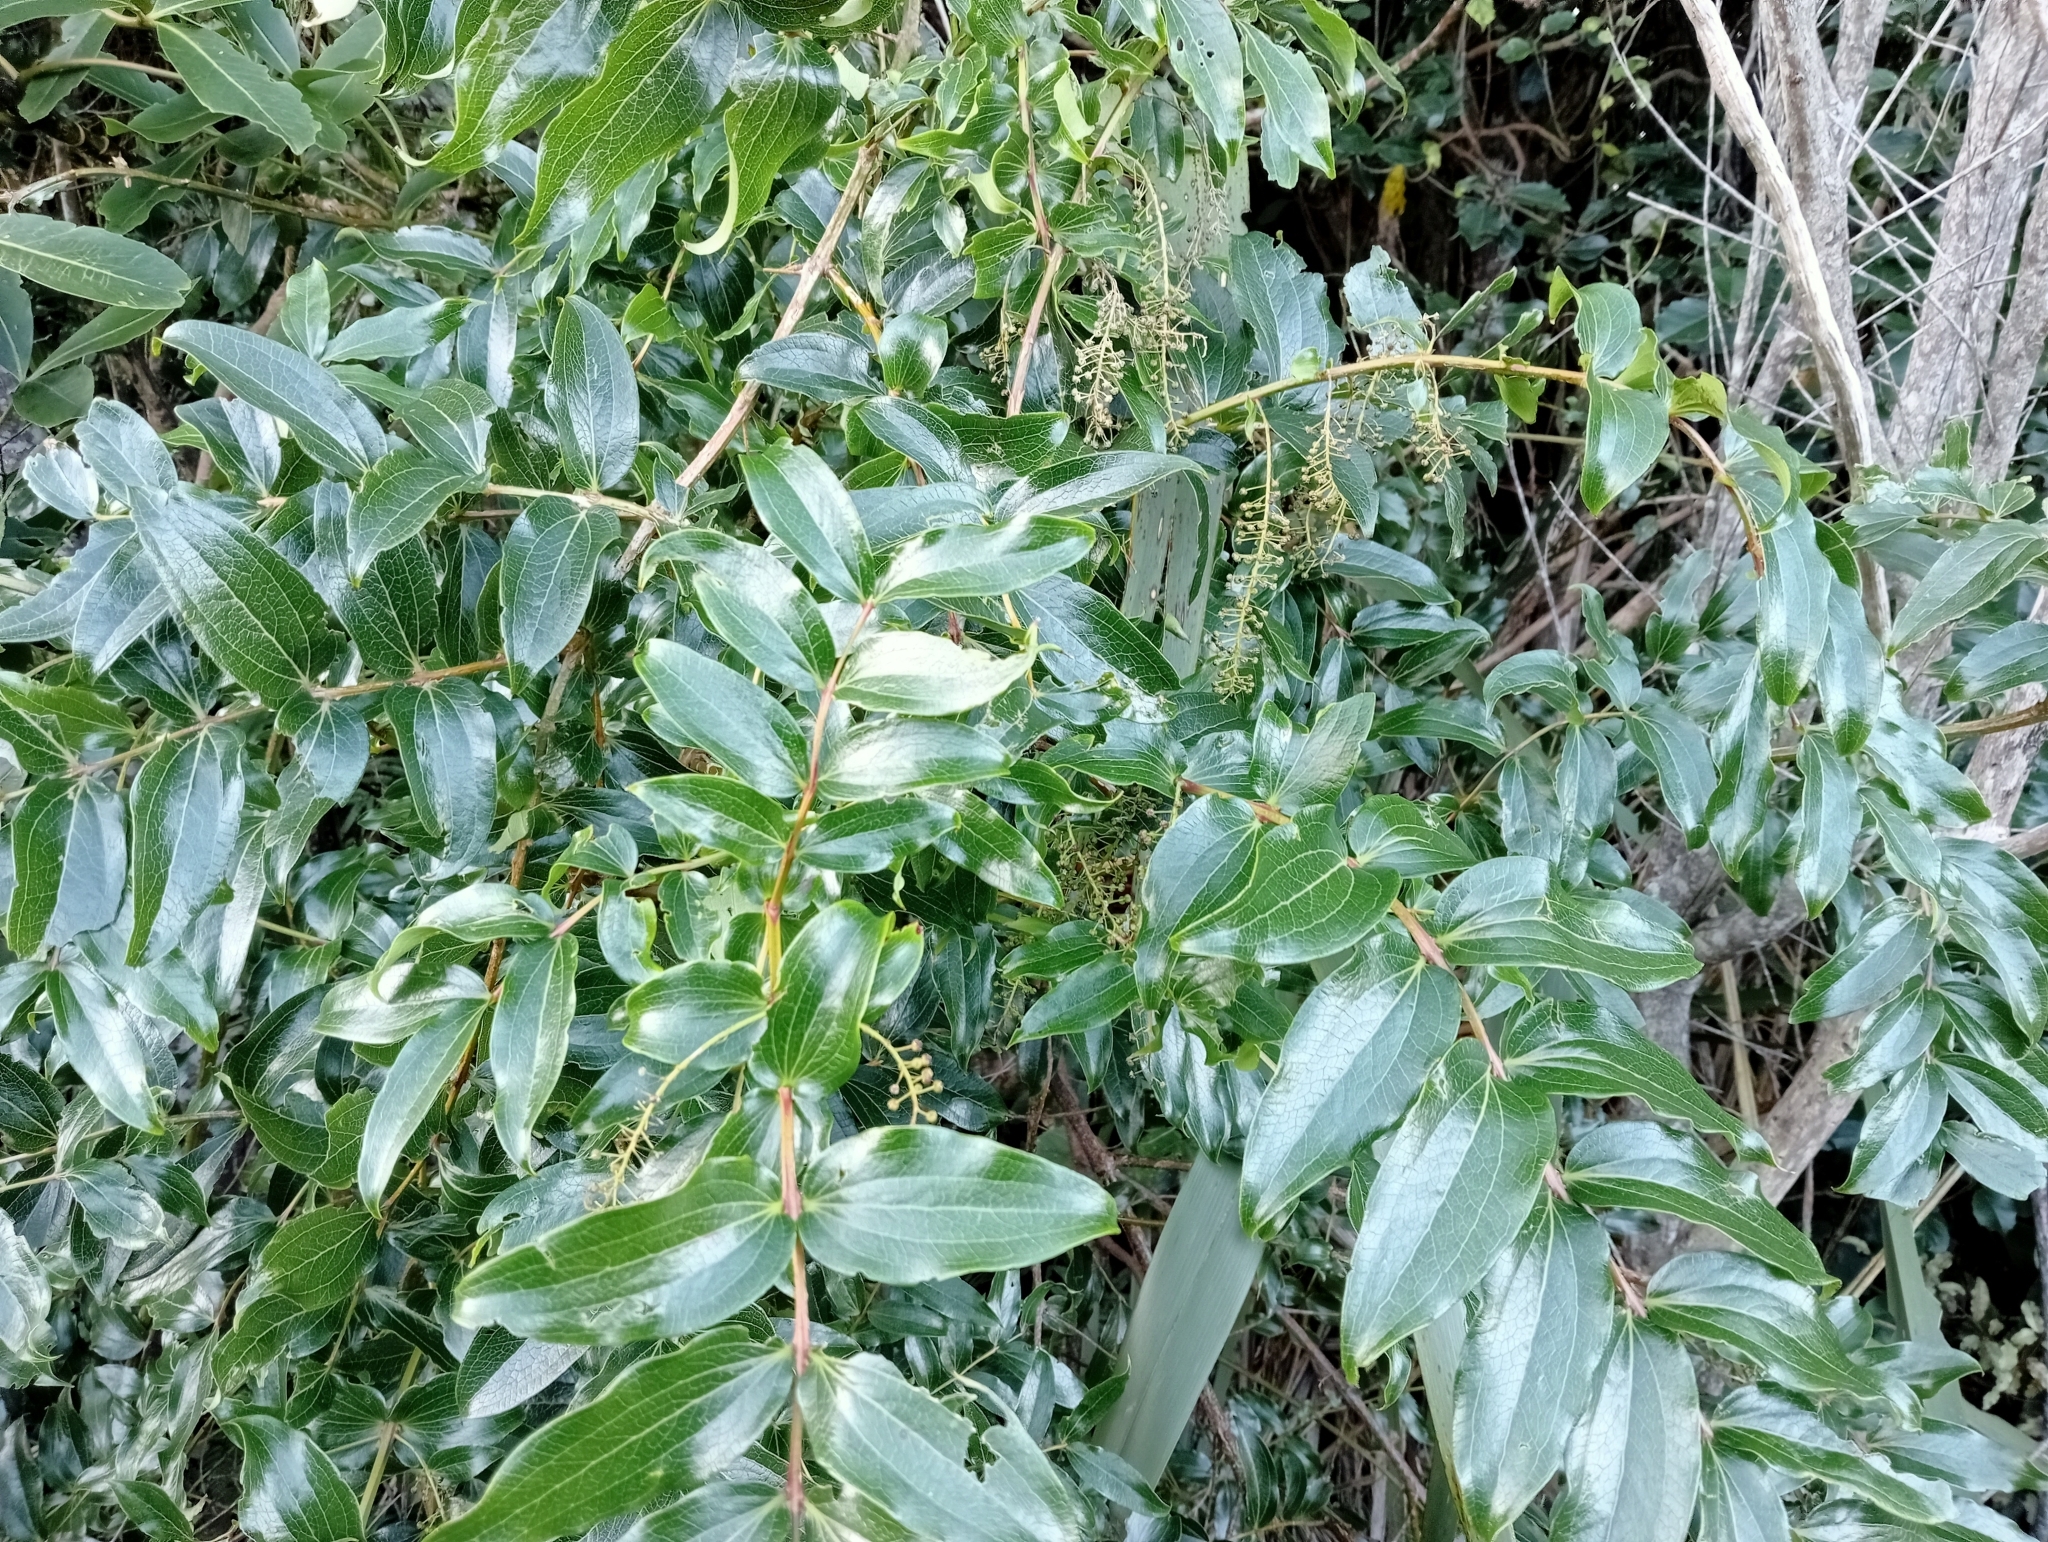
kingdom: Plantae
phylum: Tracheophyta
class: Magnoliopsida
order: Cucurbitales
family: Coriariaceae
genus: Coriaria
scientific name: Coriaria arborea
